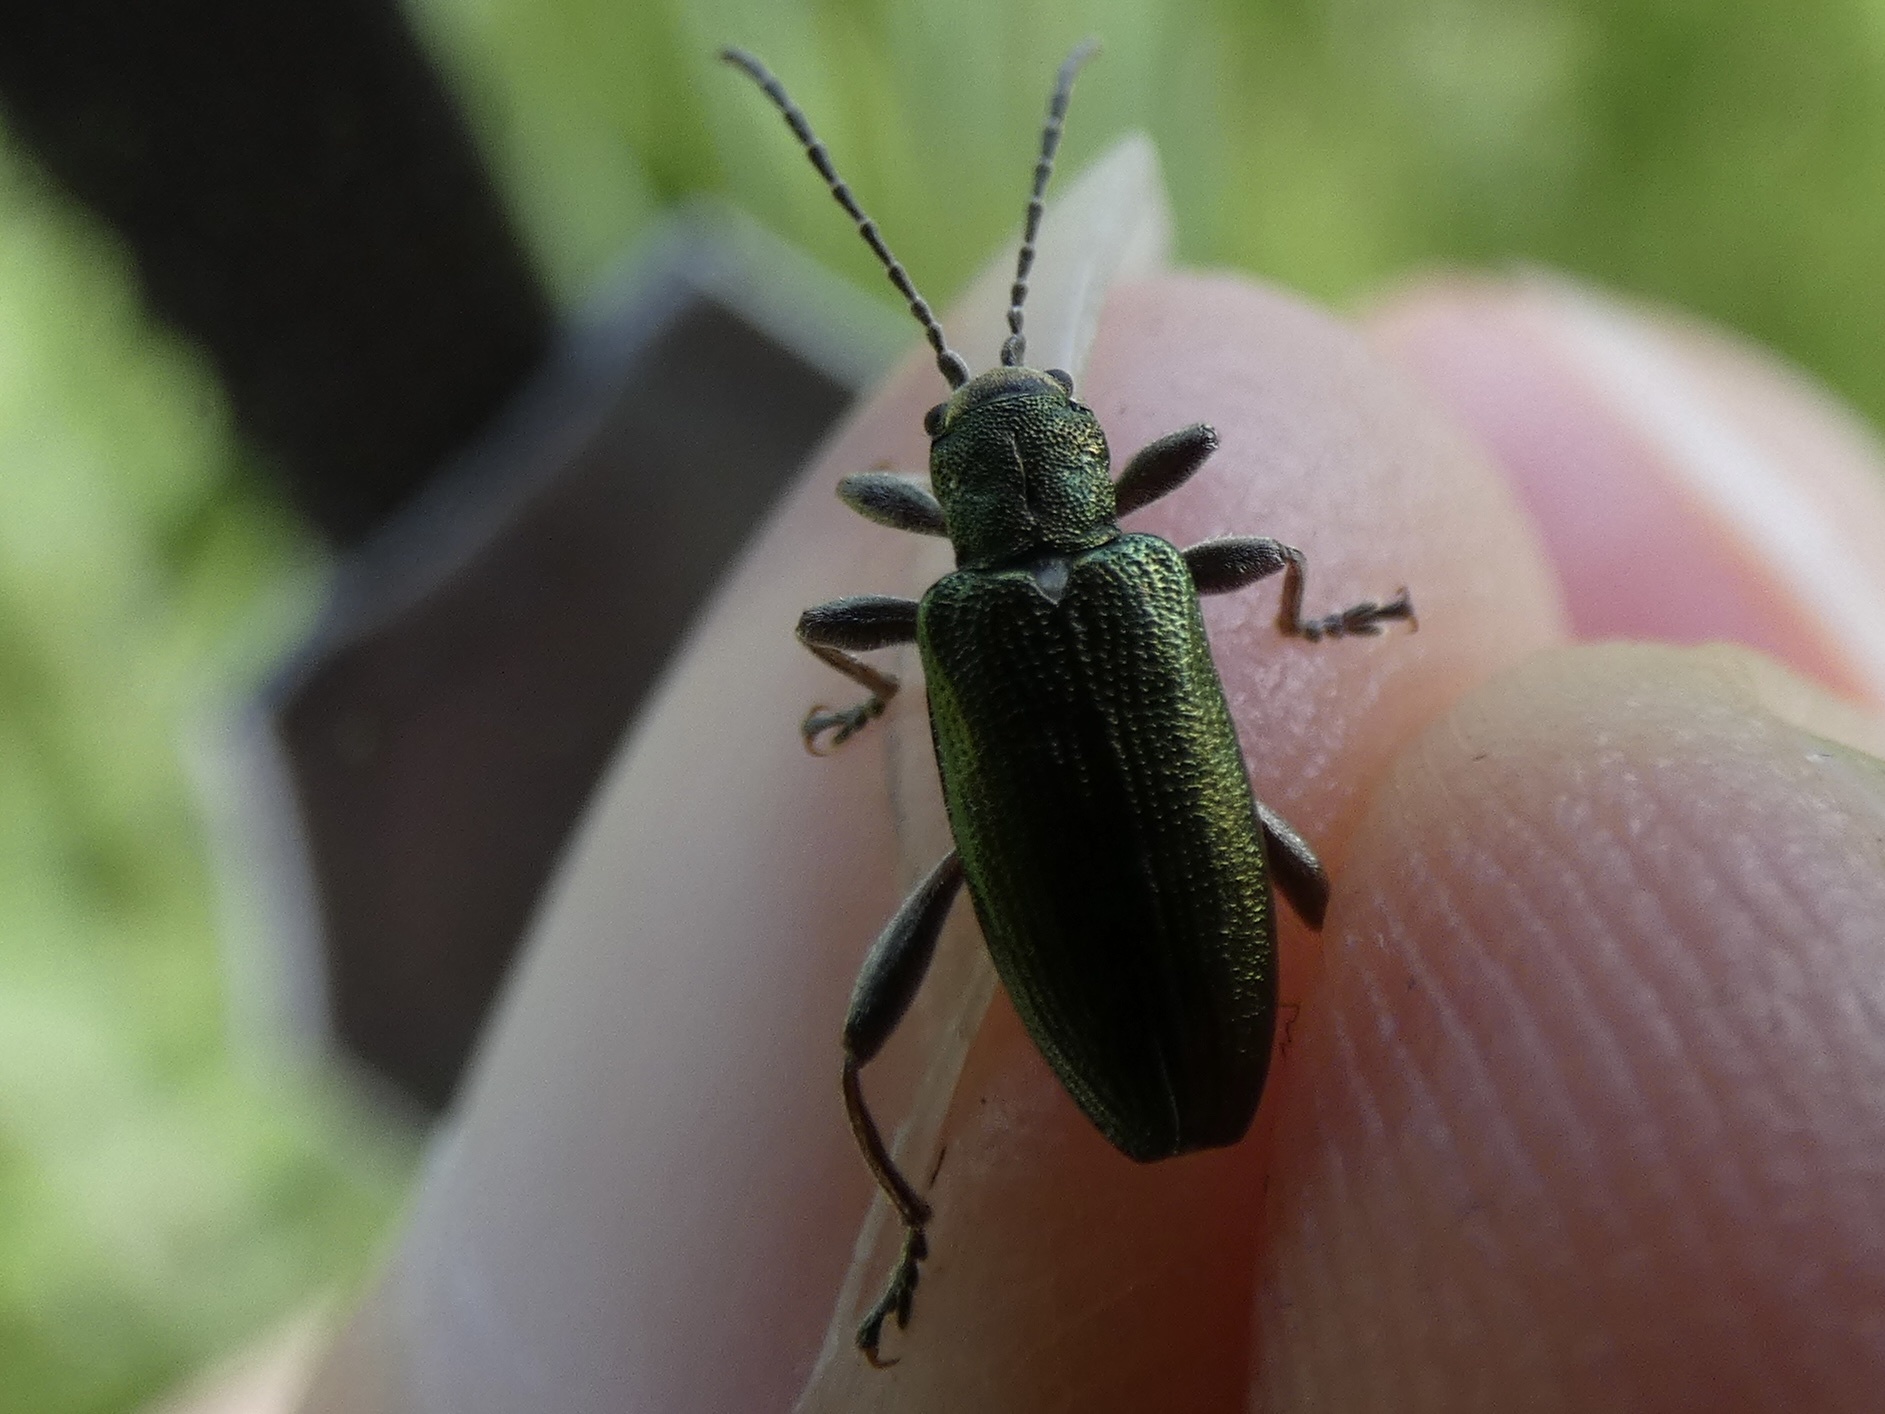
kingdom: Animalia
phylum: Arthropoda
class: Insecta
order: Coleoptera
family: Chrysomelidae
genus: Donacia
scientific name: Donacia semicuprea
